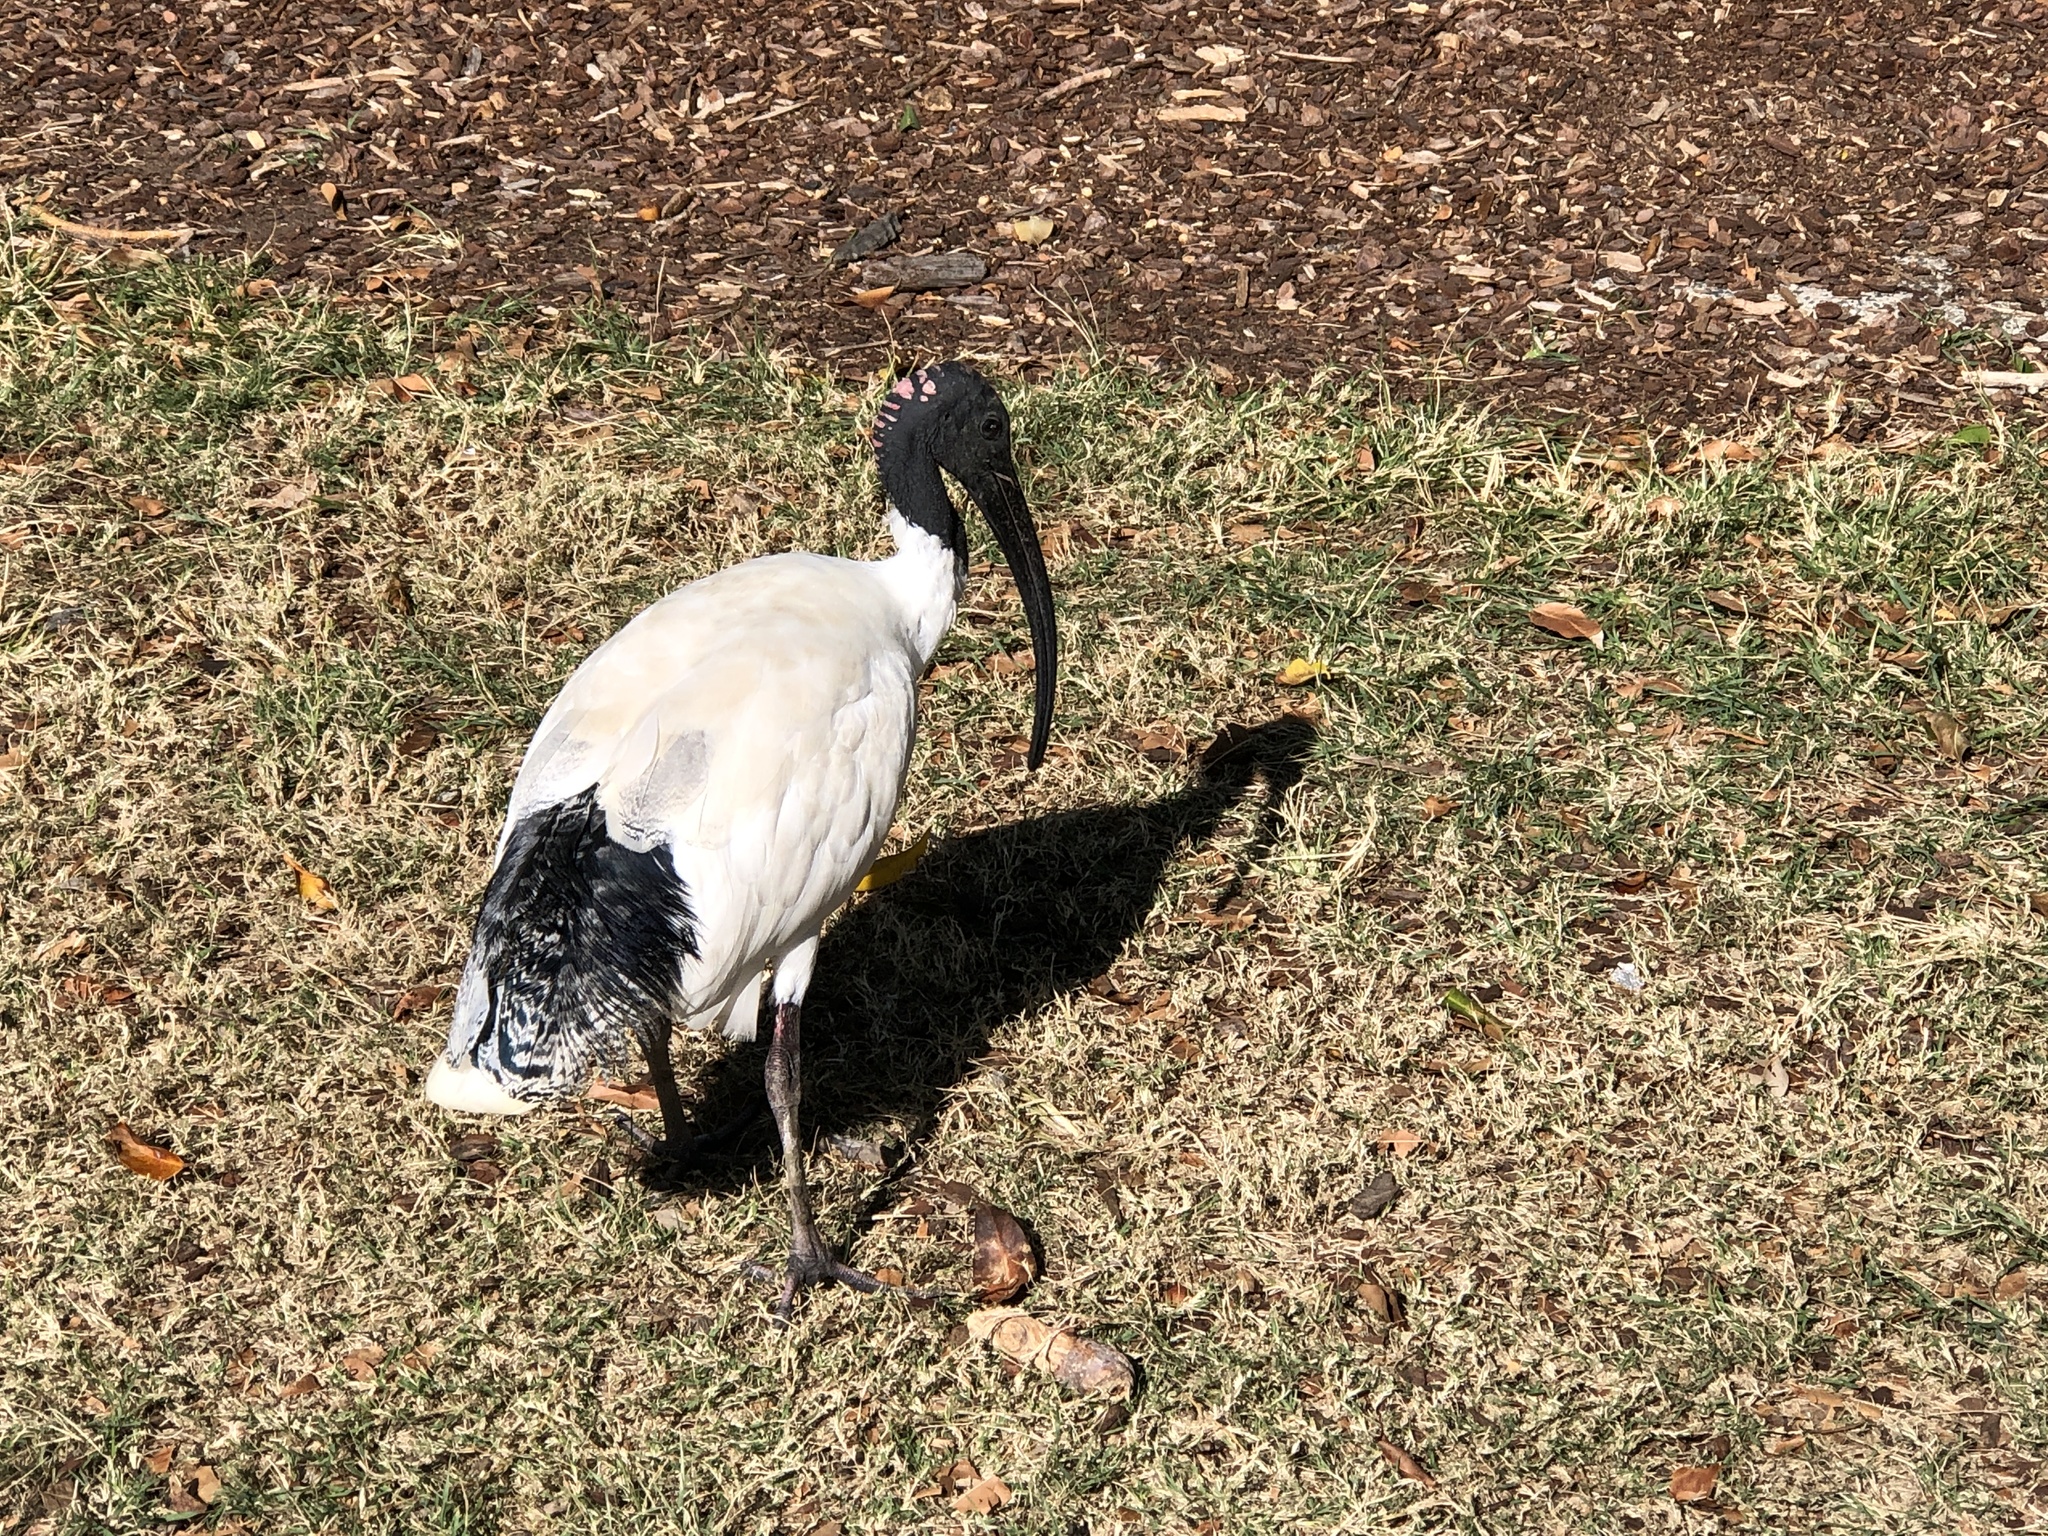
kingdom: Animalia
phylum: Chordata
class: Aves
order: Pelecaniformes
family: Threskiornithidae
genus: Threskiornis
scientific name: Threskiornis molucca
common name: Australian white ibis
